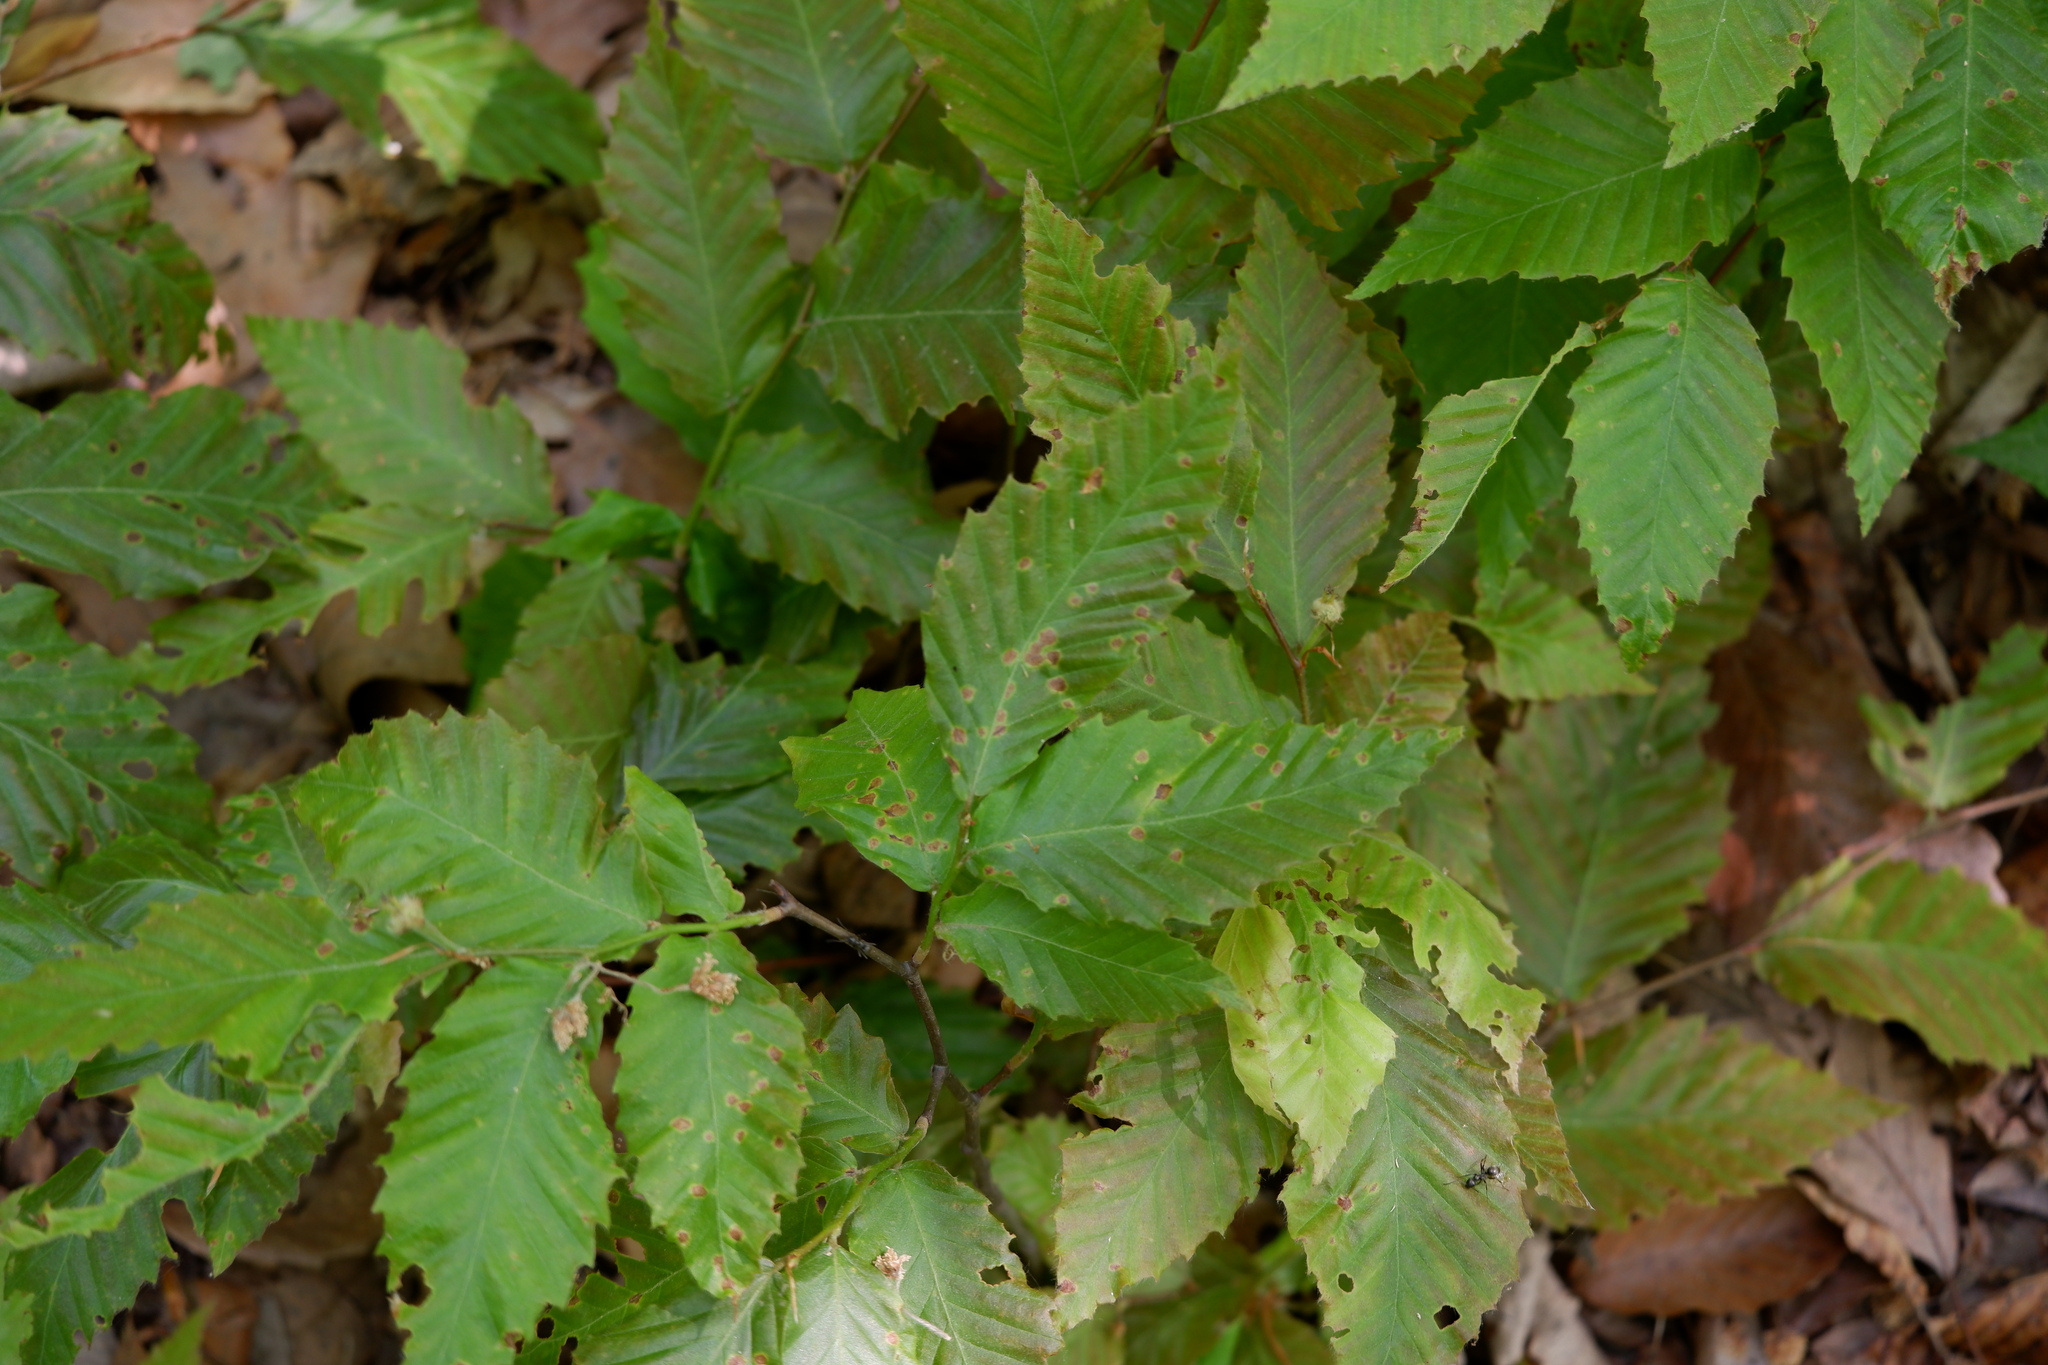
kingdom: Plantae
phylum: Tracheophyta
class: Magnoliopsida
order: Fagales
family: Fagaceae
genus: Fagus
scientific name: Fagus grandifolia
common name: American beech
